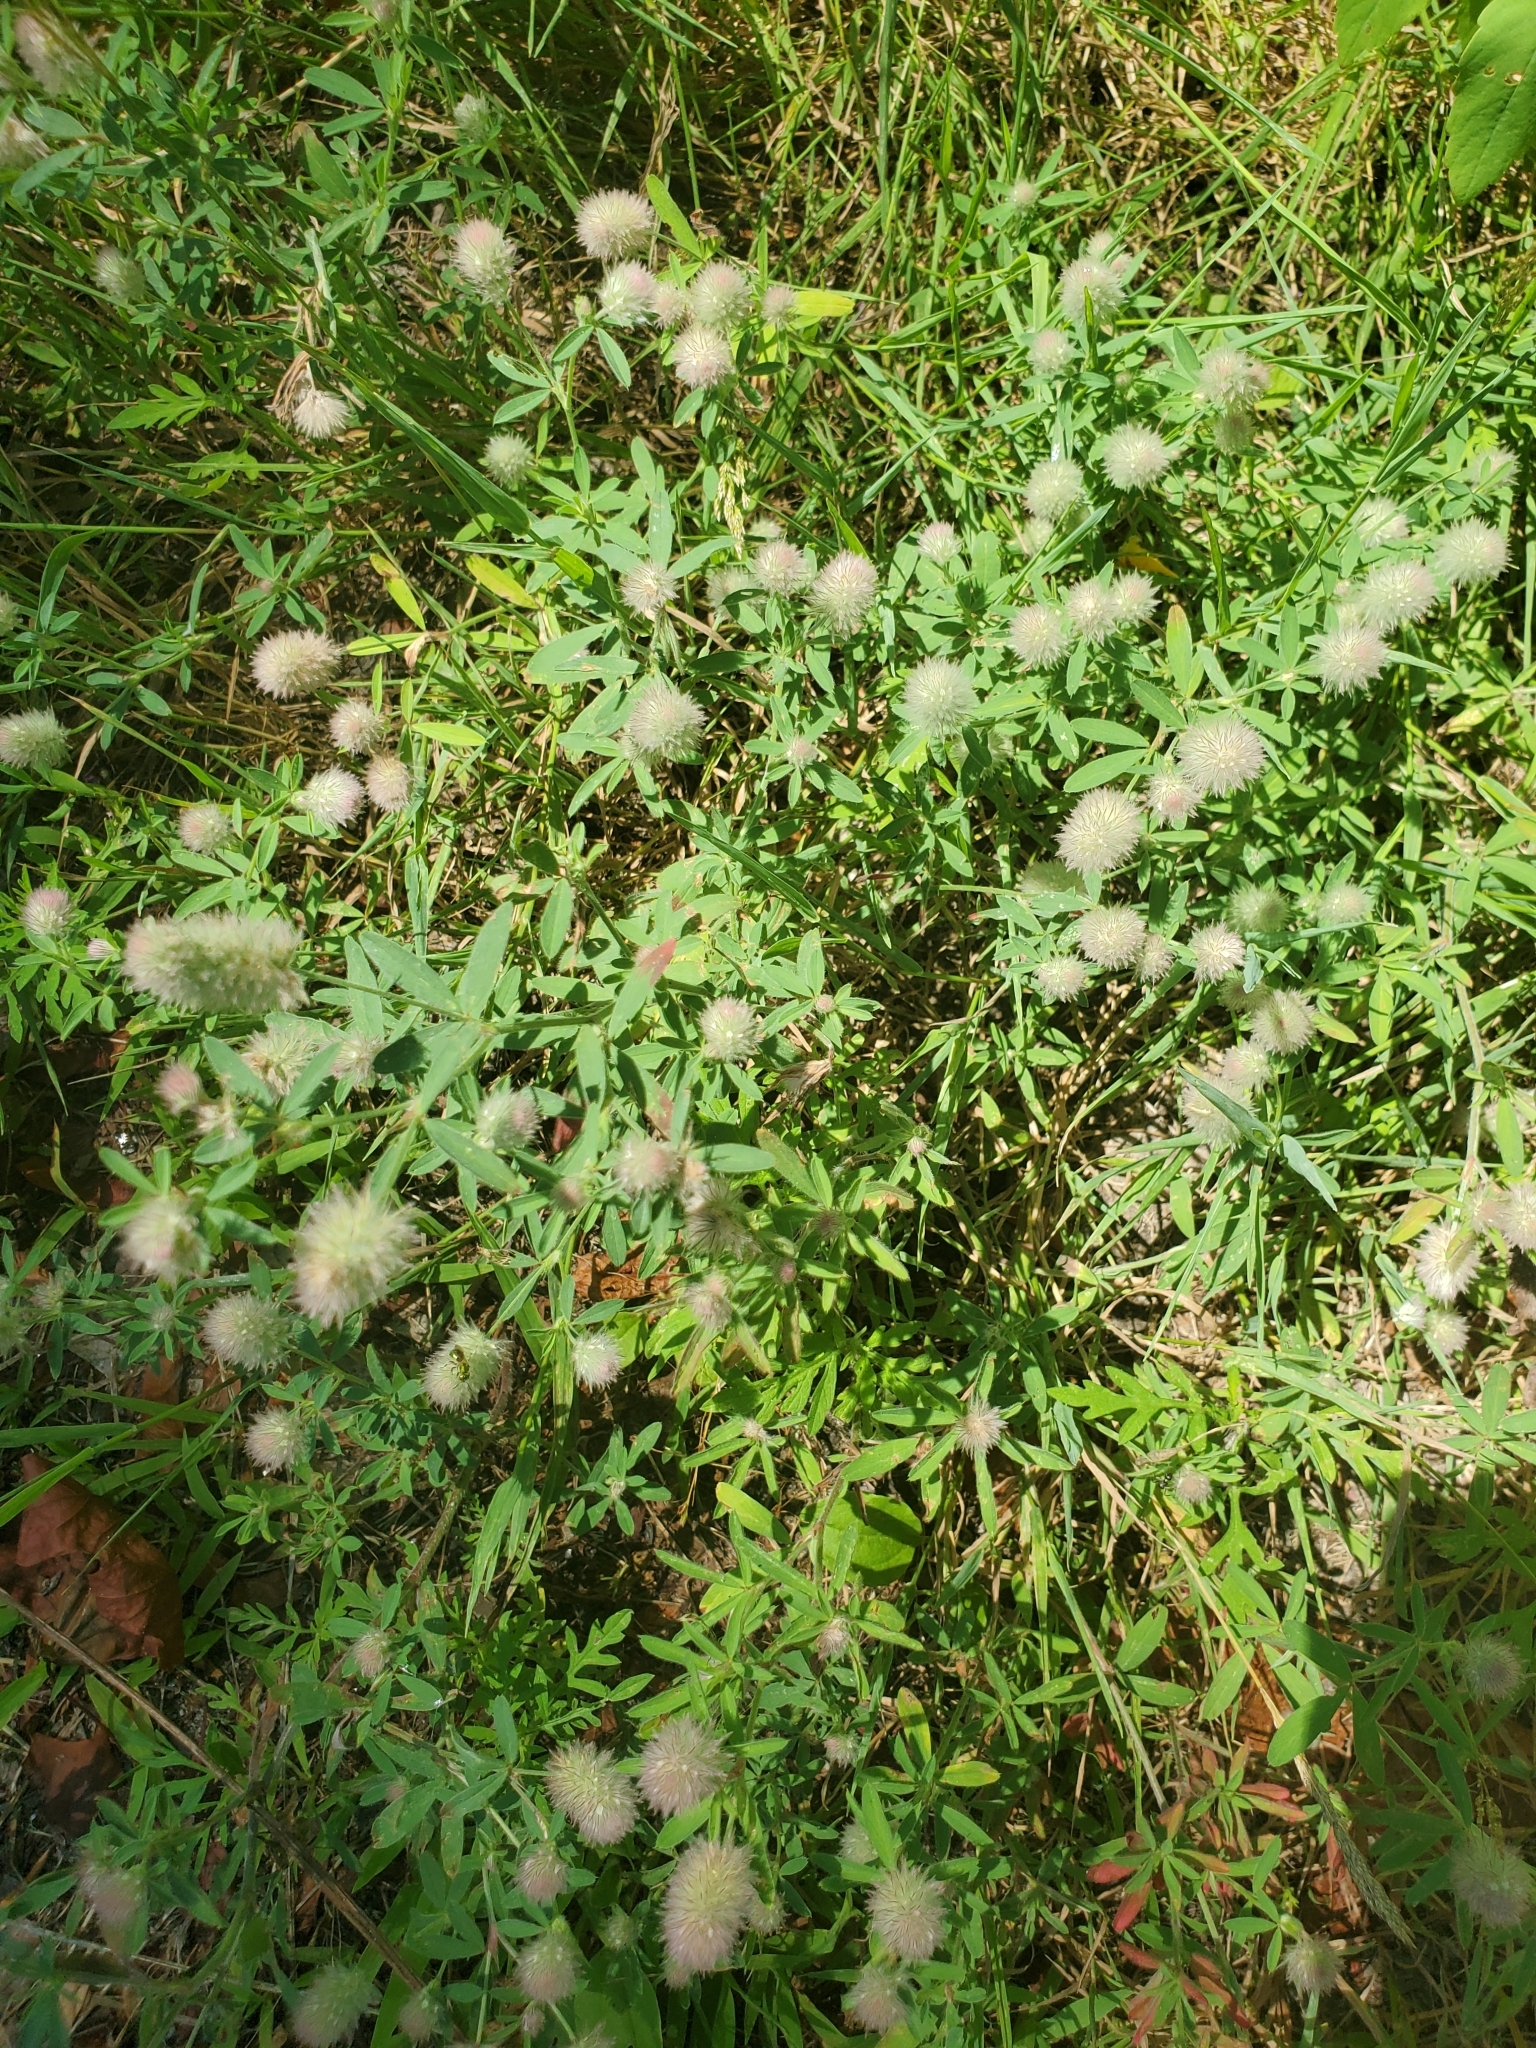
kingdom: Plantae
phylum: Tracheophyta
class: Magnoliopsida
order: Fabales
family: Fabaceae
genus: Trifolium
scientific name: Trifolium arvense
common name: Hare's-foot clover
